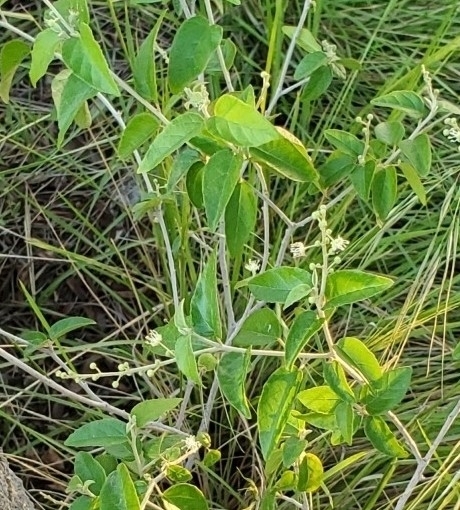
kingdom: Plantae
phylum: Tracheophyta
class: Magnoliopsida
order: Malpighiales
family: Euphorbiaceae
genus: Croton
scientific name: Croton fruticulosus
